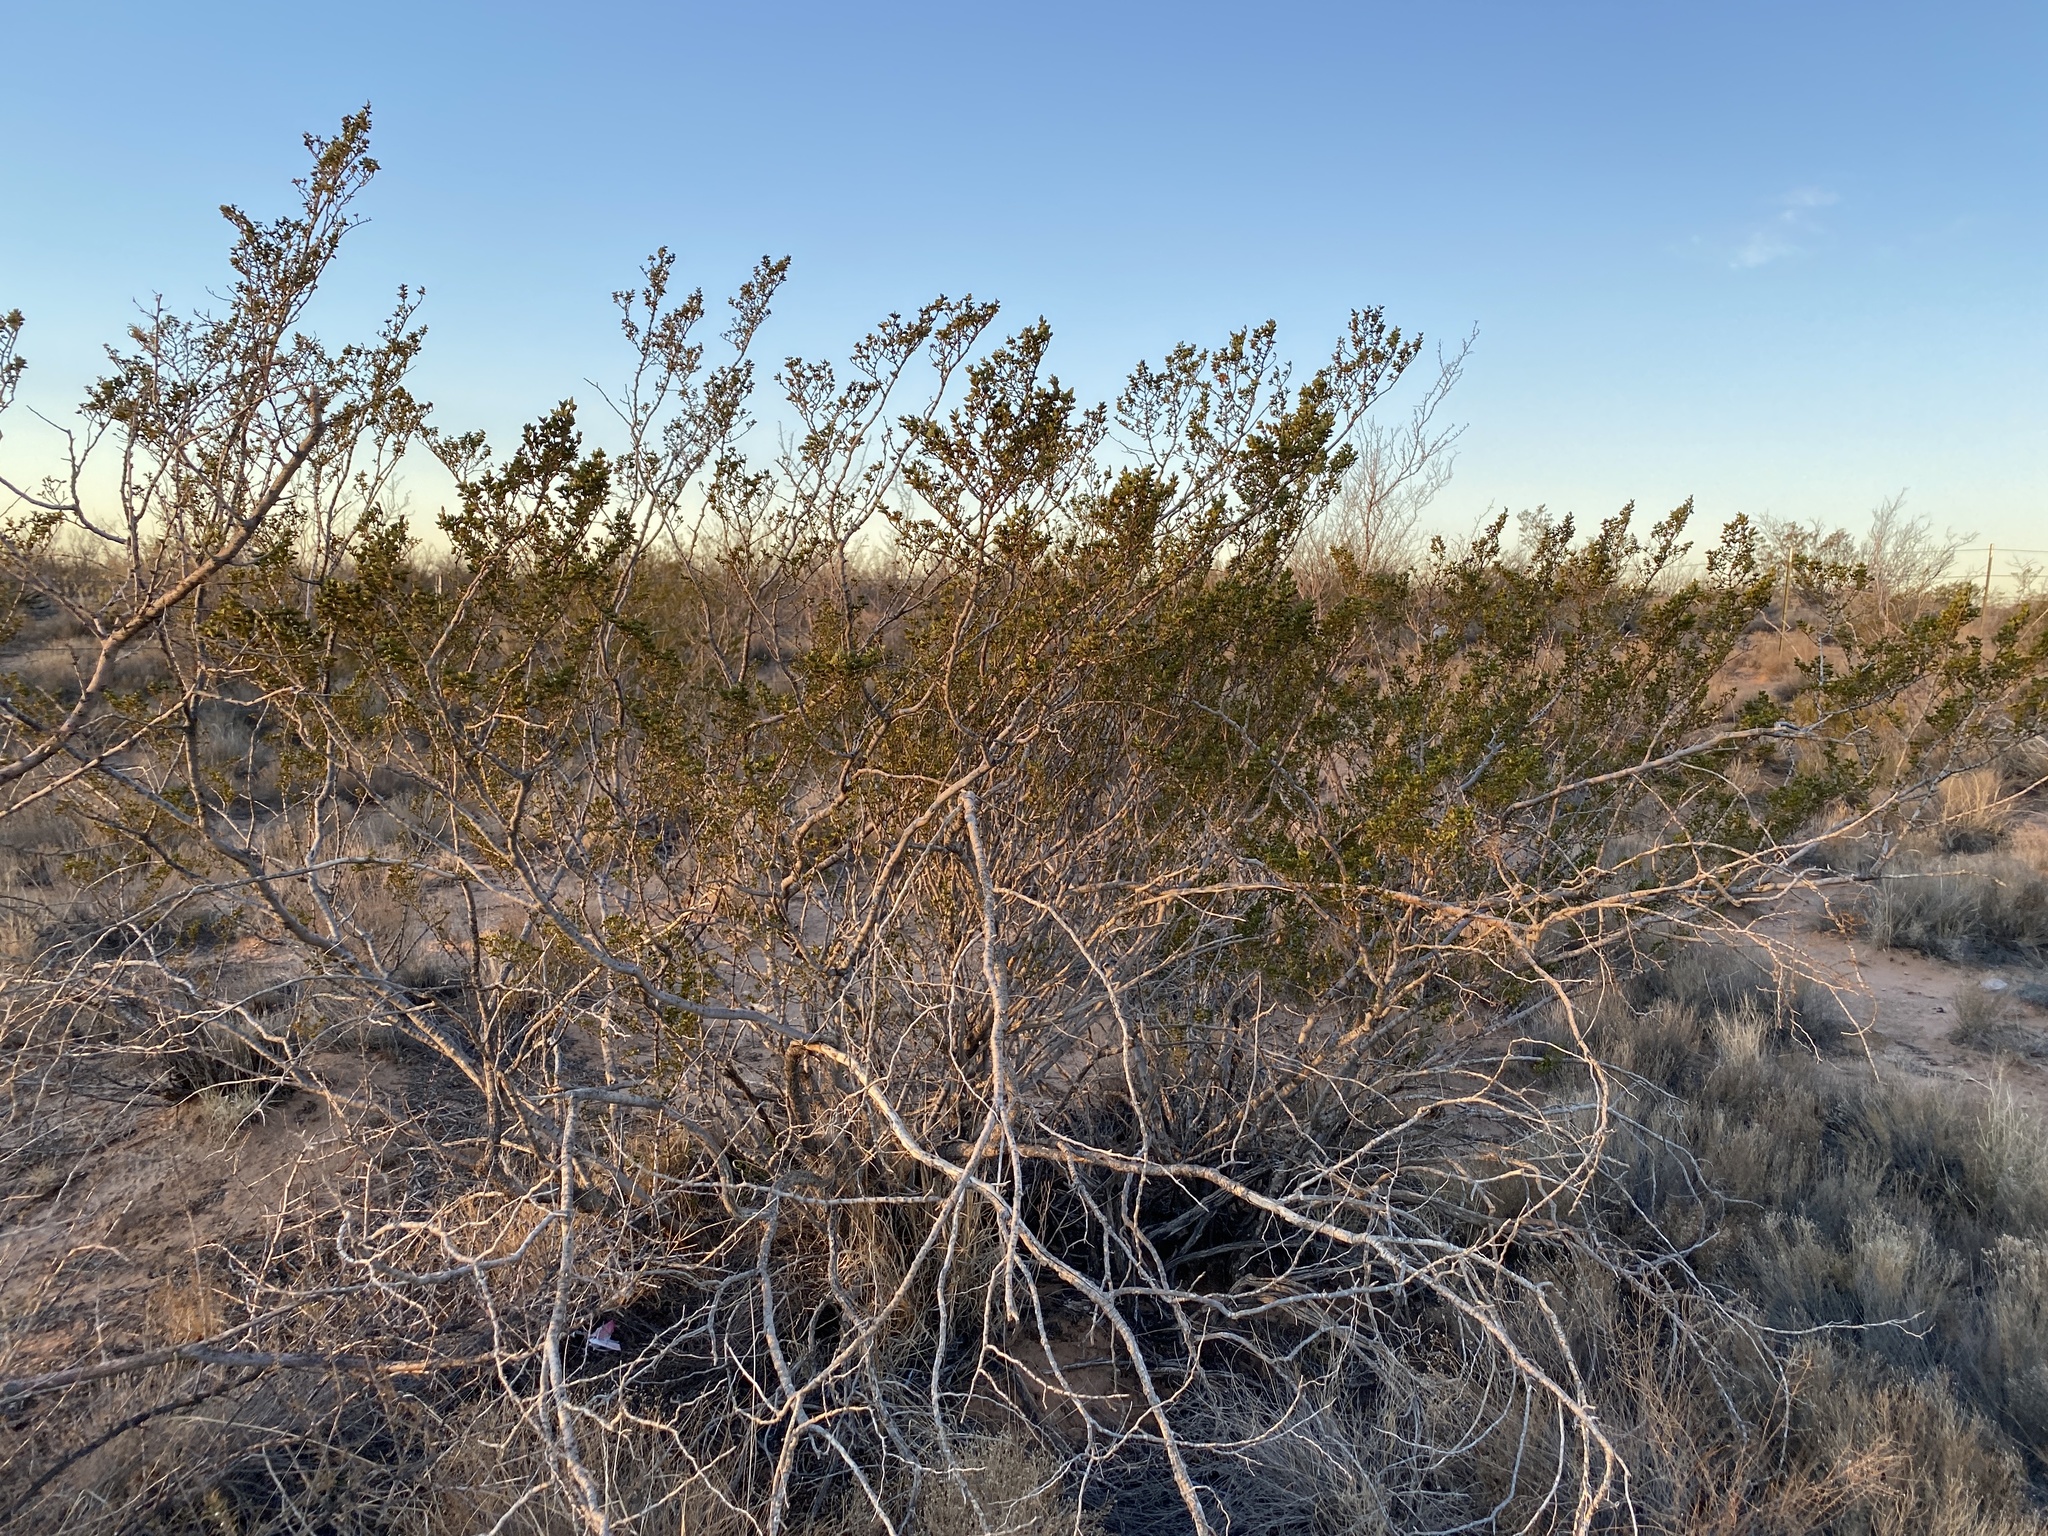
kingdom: Plantae
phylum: Tracheophyta
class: Magnoliopsida
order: Zygophyllales
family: Zygophyllaceae
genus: Larrea
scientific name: Larrea tridentata
